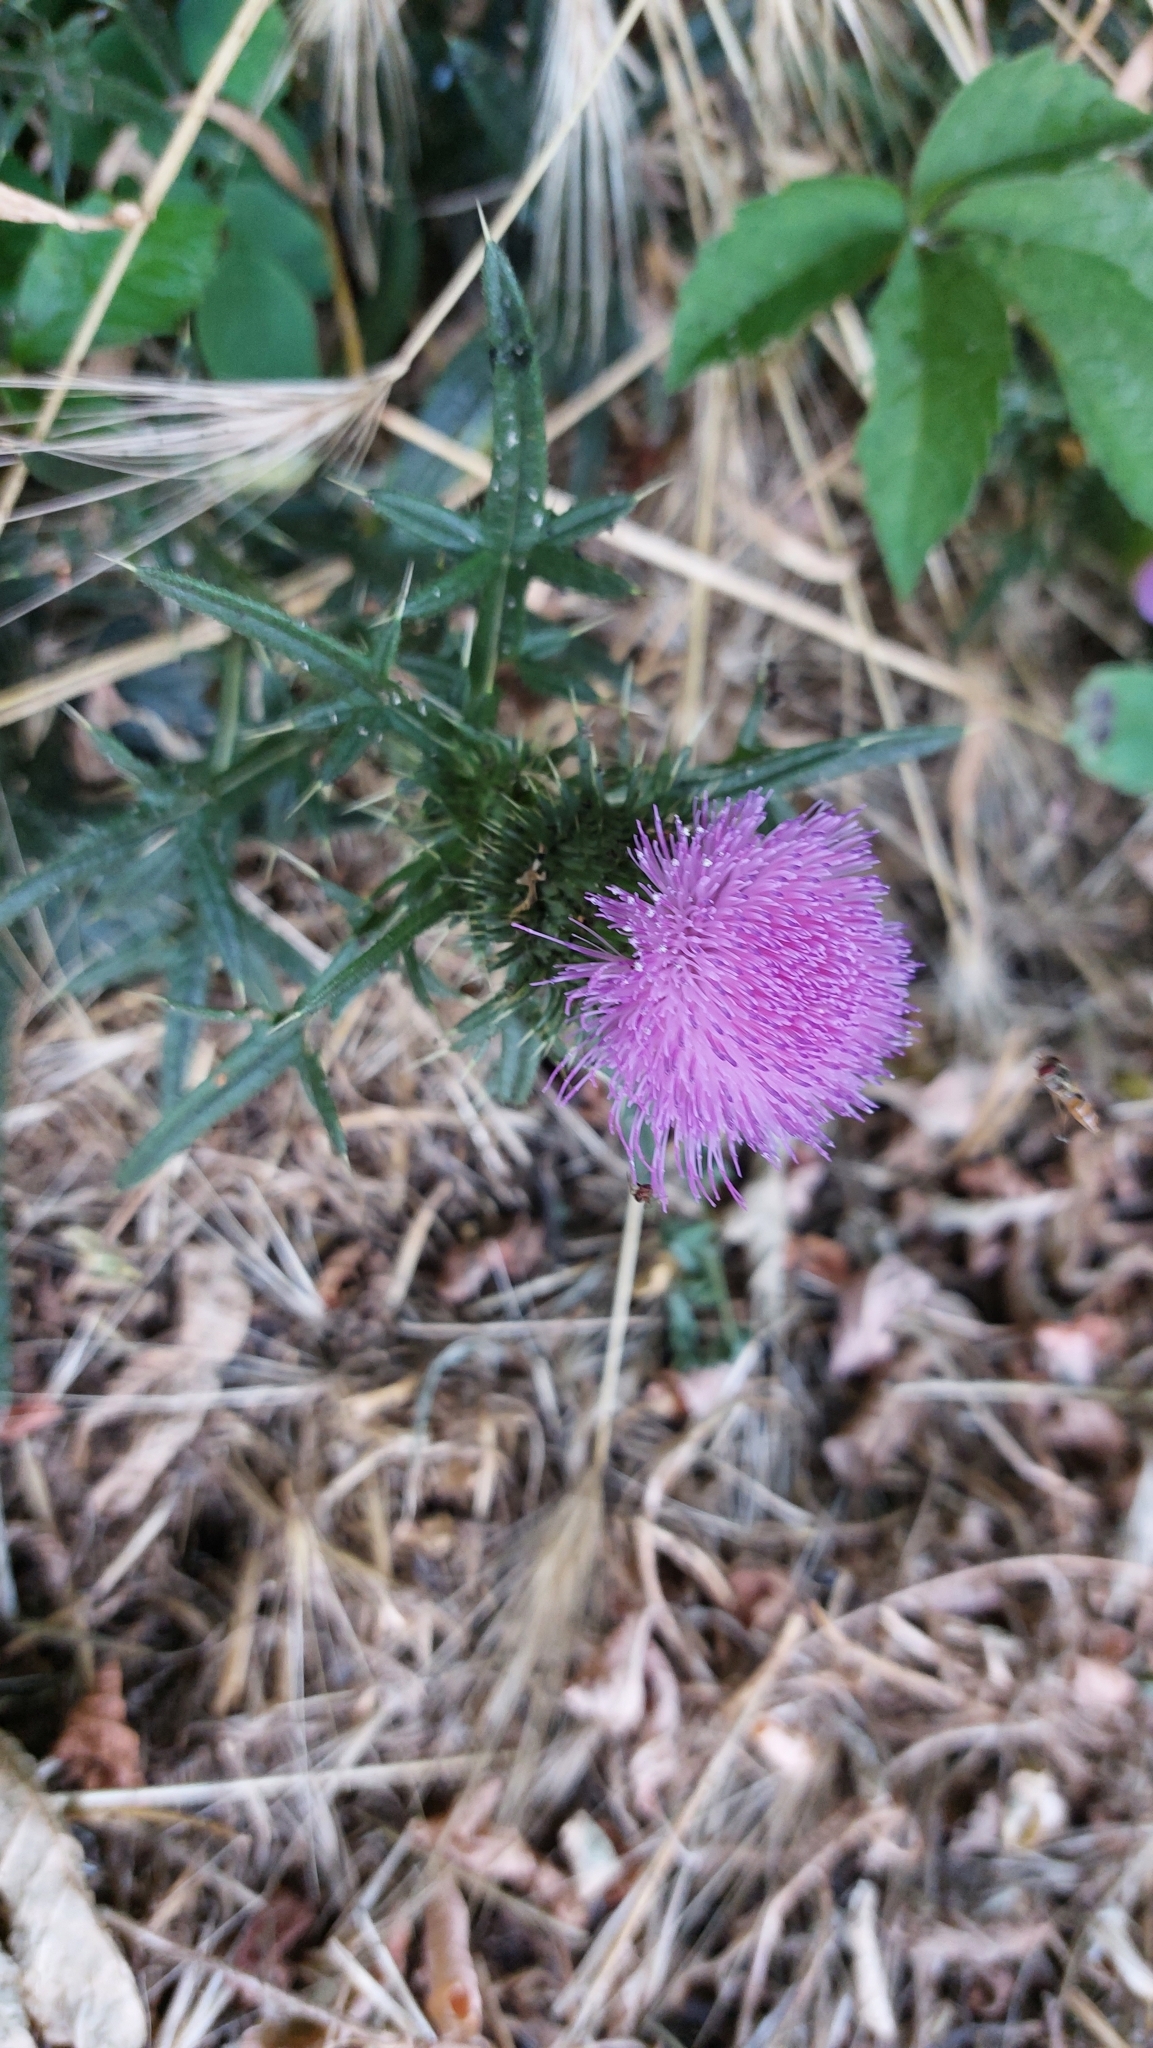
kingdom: Plantae
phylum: Tracheophyta
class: Magnoliopsida
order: Asterales
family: Asteraceae
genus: Cirsium
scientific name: Cirsium vulgare
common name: Bull thistle
